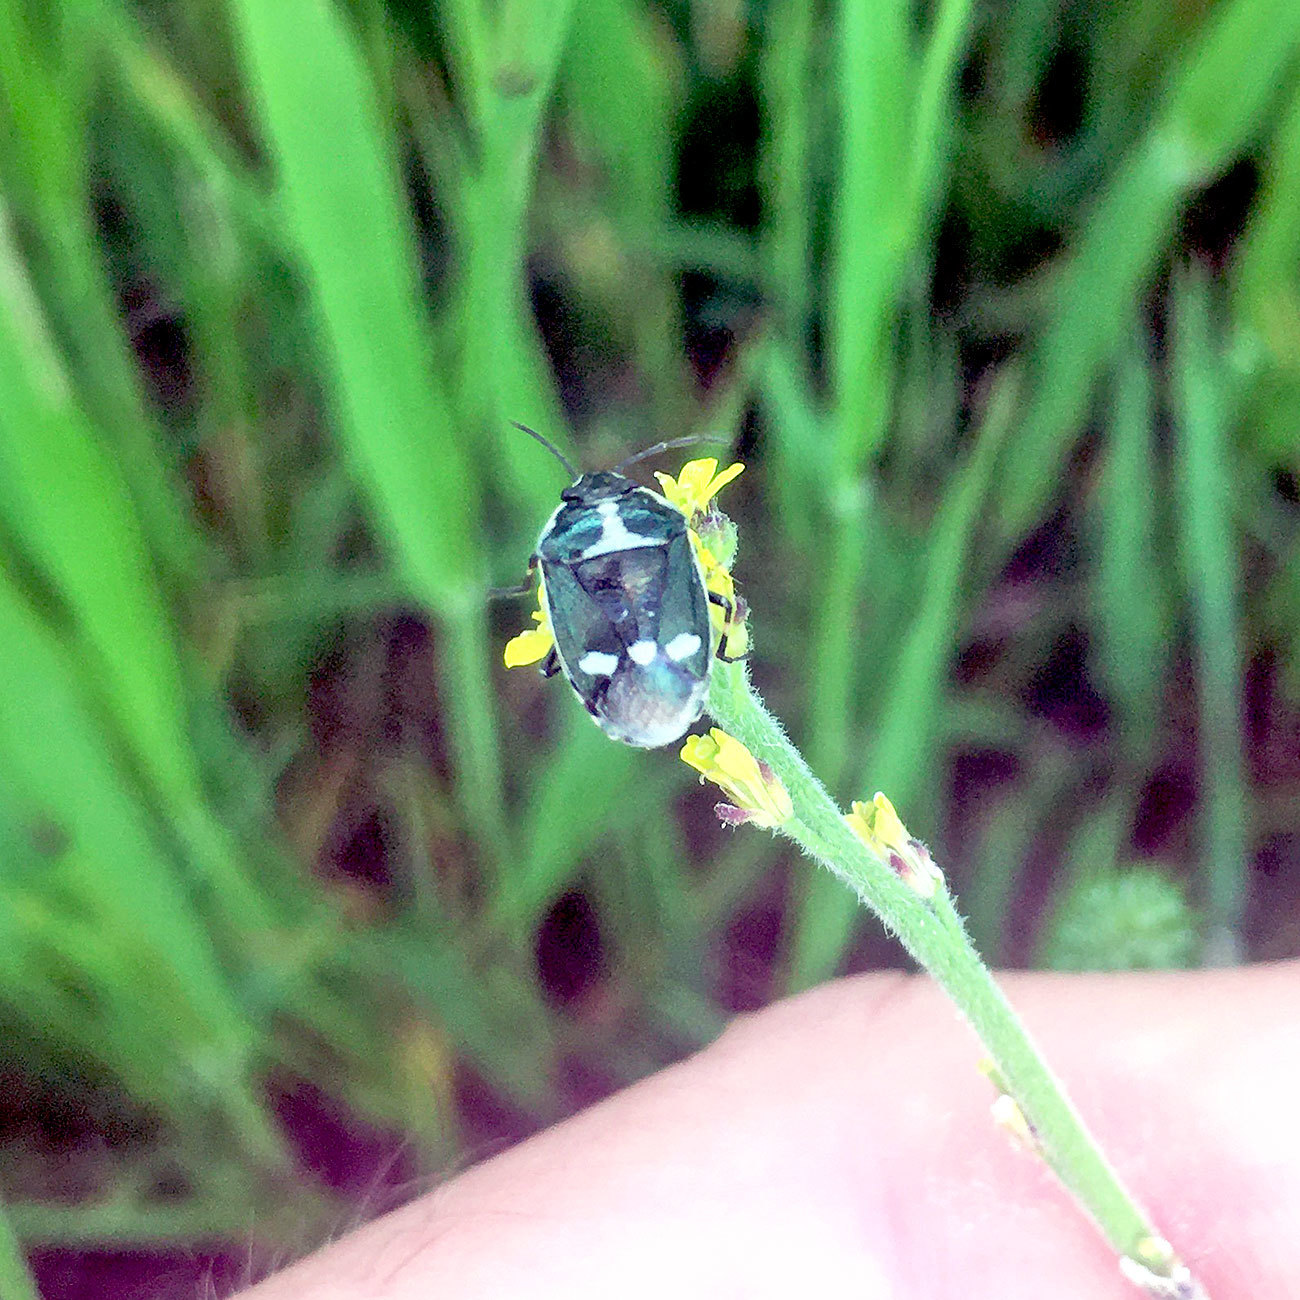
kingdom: Animalia
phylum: Arthropoda
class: Insecta
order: Hemiptera
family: Pentatomidae
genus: Eurydema
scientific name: Eurydema oleracea
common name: Cabbage bug
